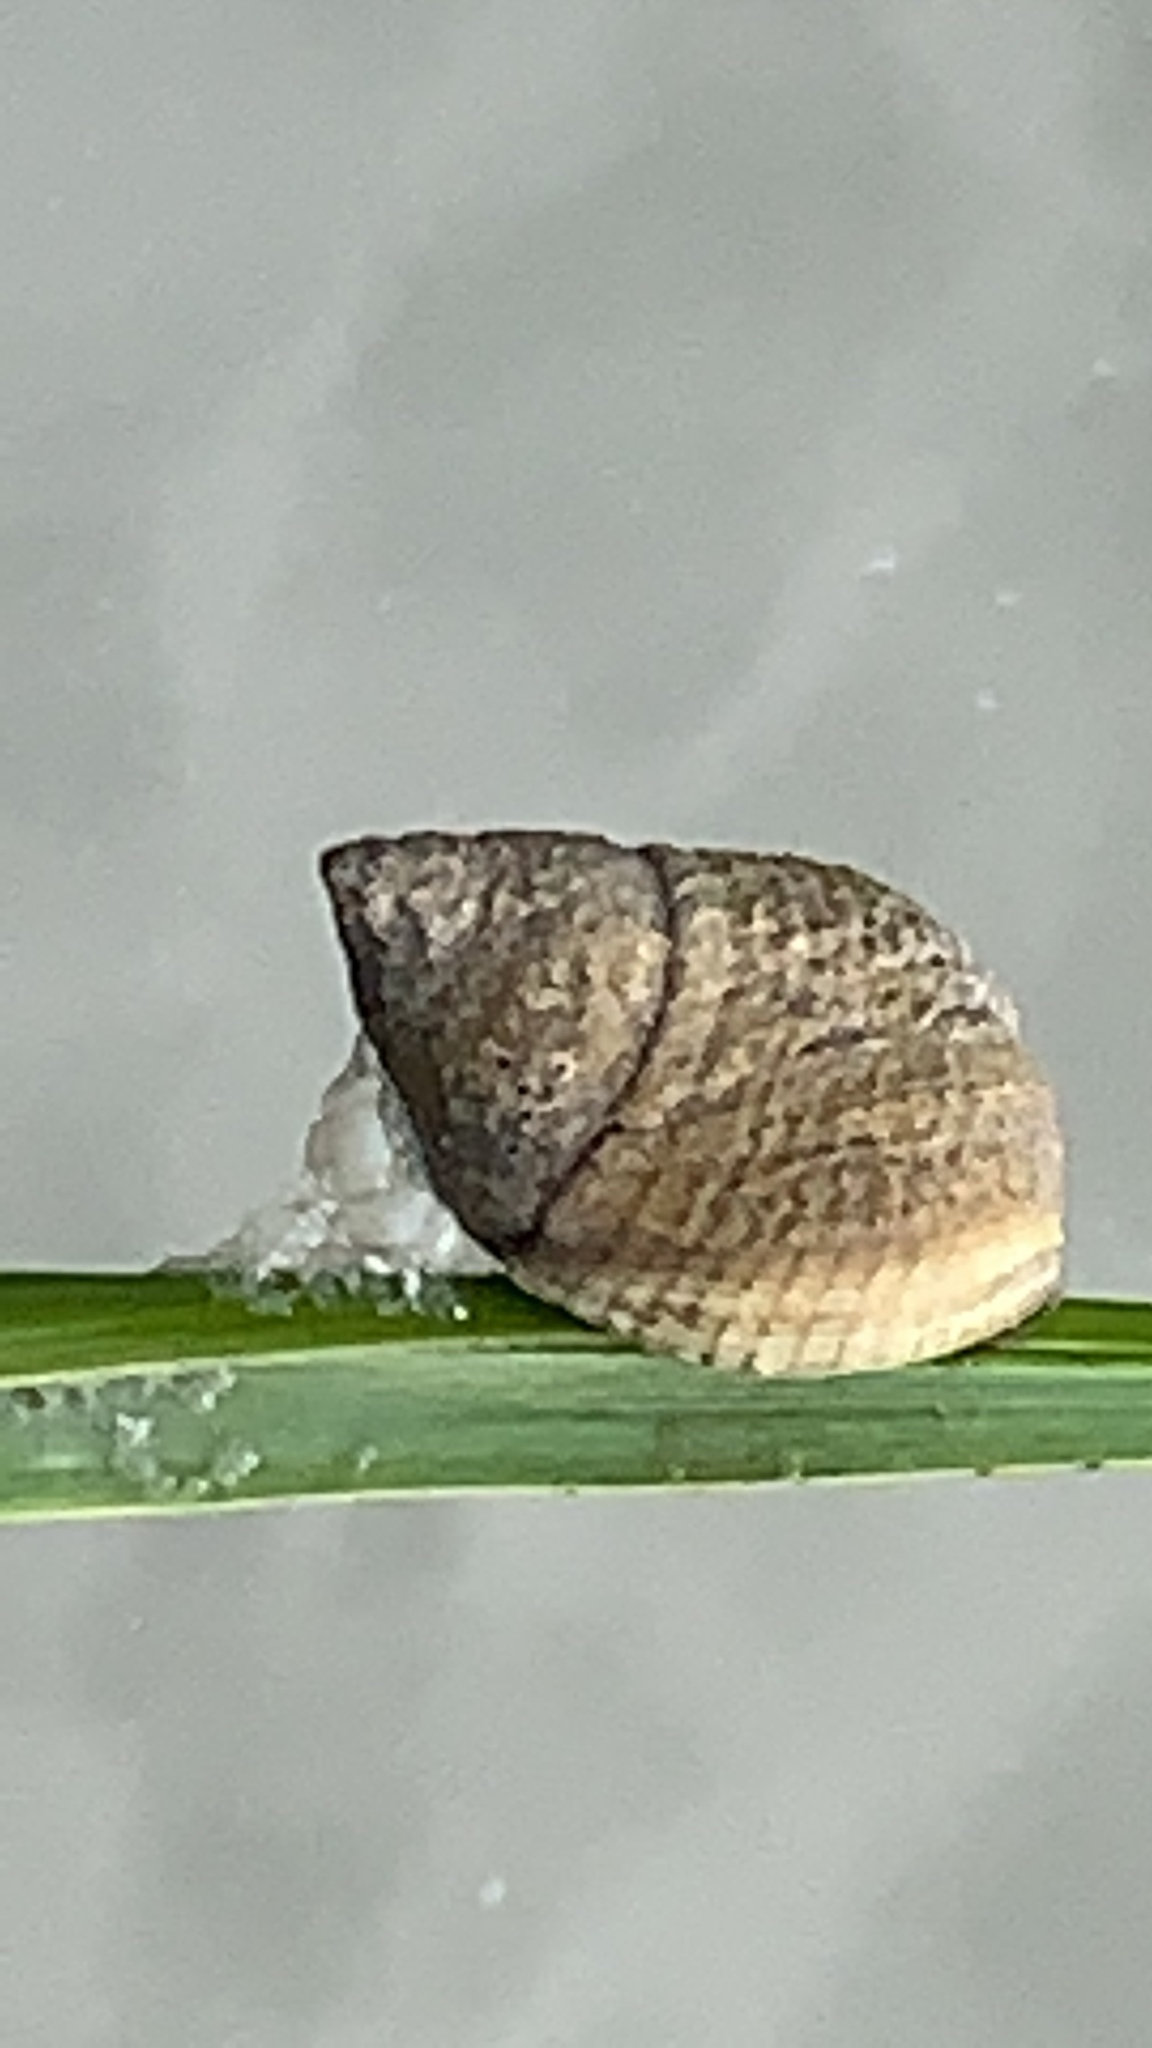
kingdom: Animalia
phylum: Mollusca
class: Gastropoda
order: Littorinimorpha
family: Littorinidae
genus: Littoraria
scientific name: Littoraria irrorata
